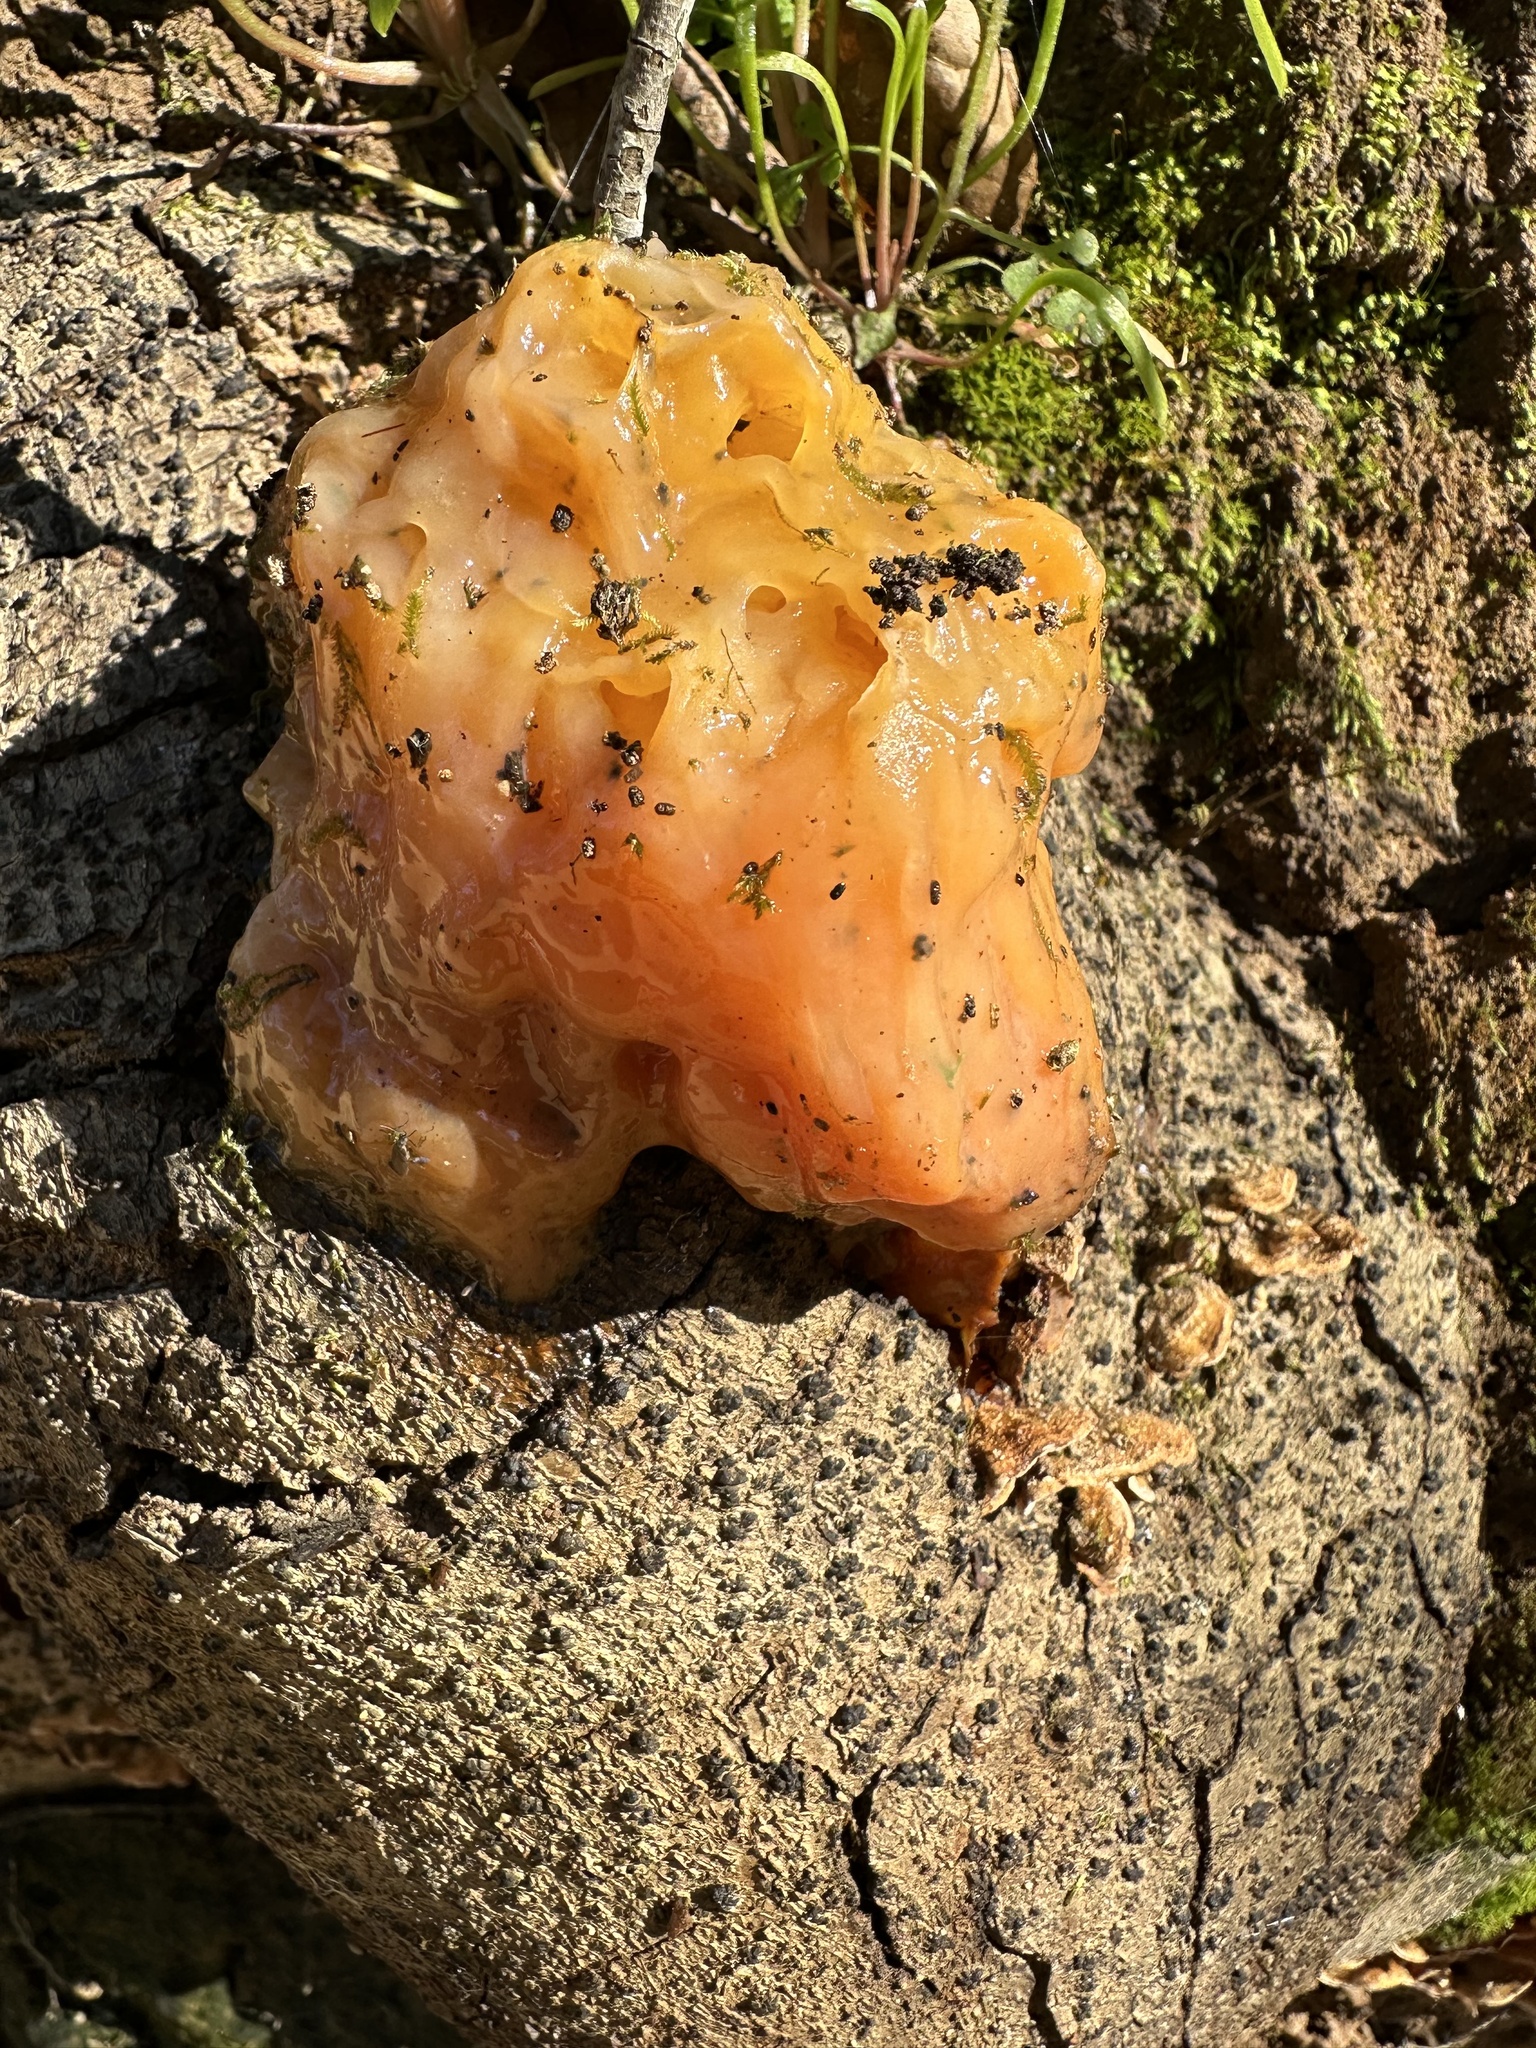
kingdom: Fungi
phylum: Basidiomycota
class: Tremellomycetes
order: Tremellales
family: Naemateliaceae
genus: Naematelia
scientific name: Naematelia aurantia
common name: Golden ear
